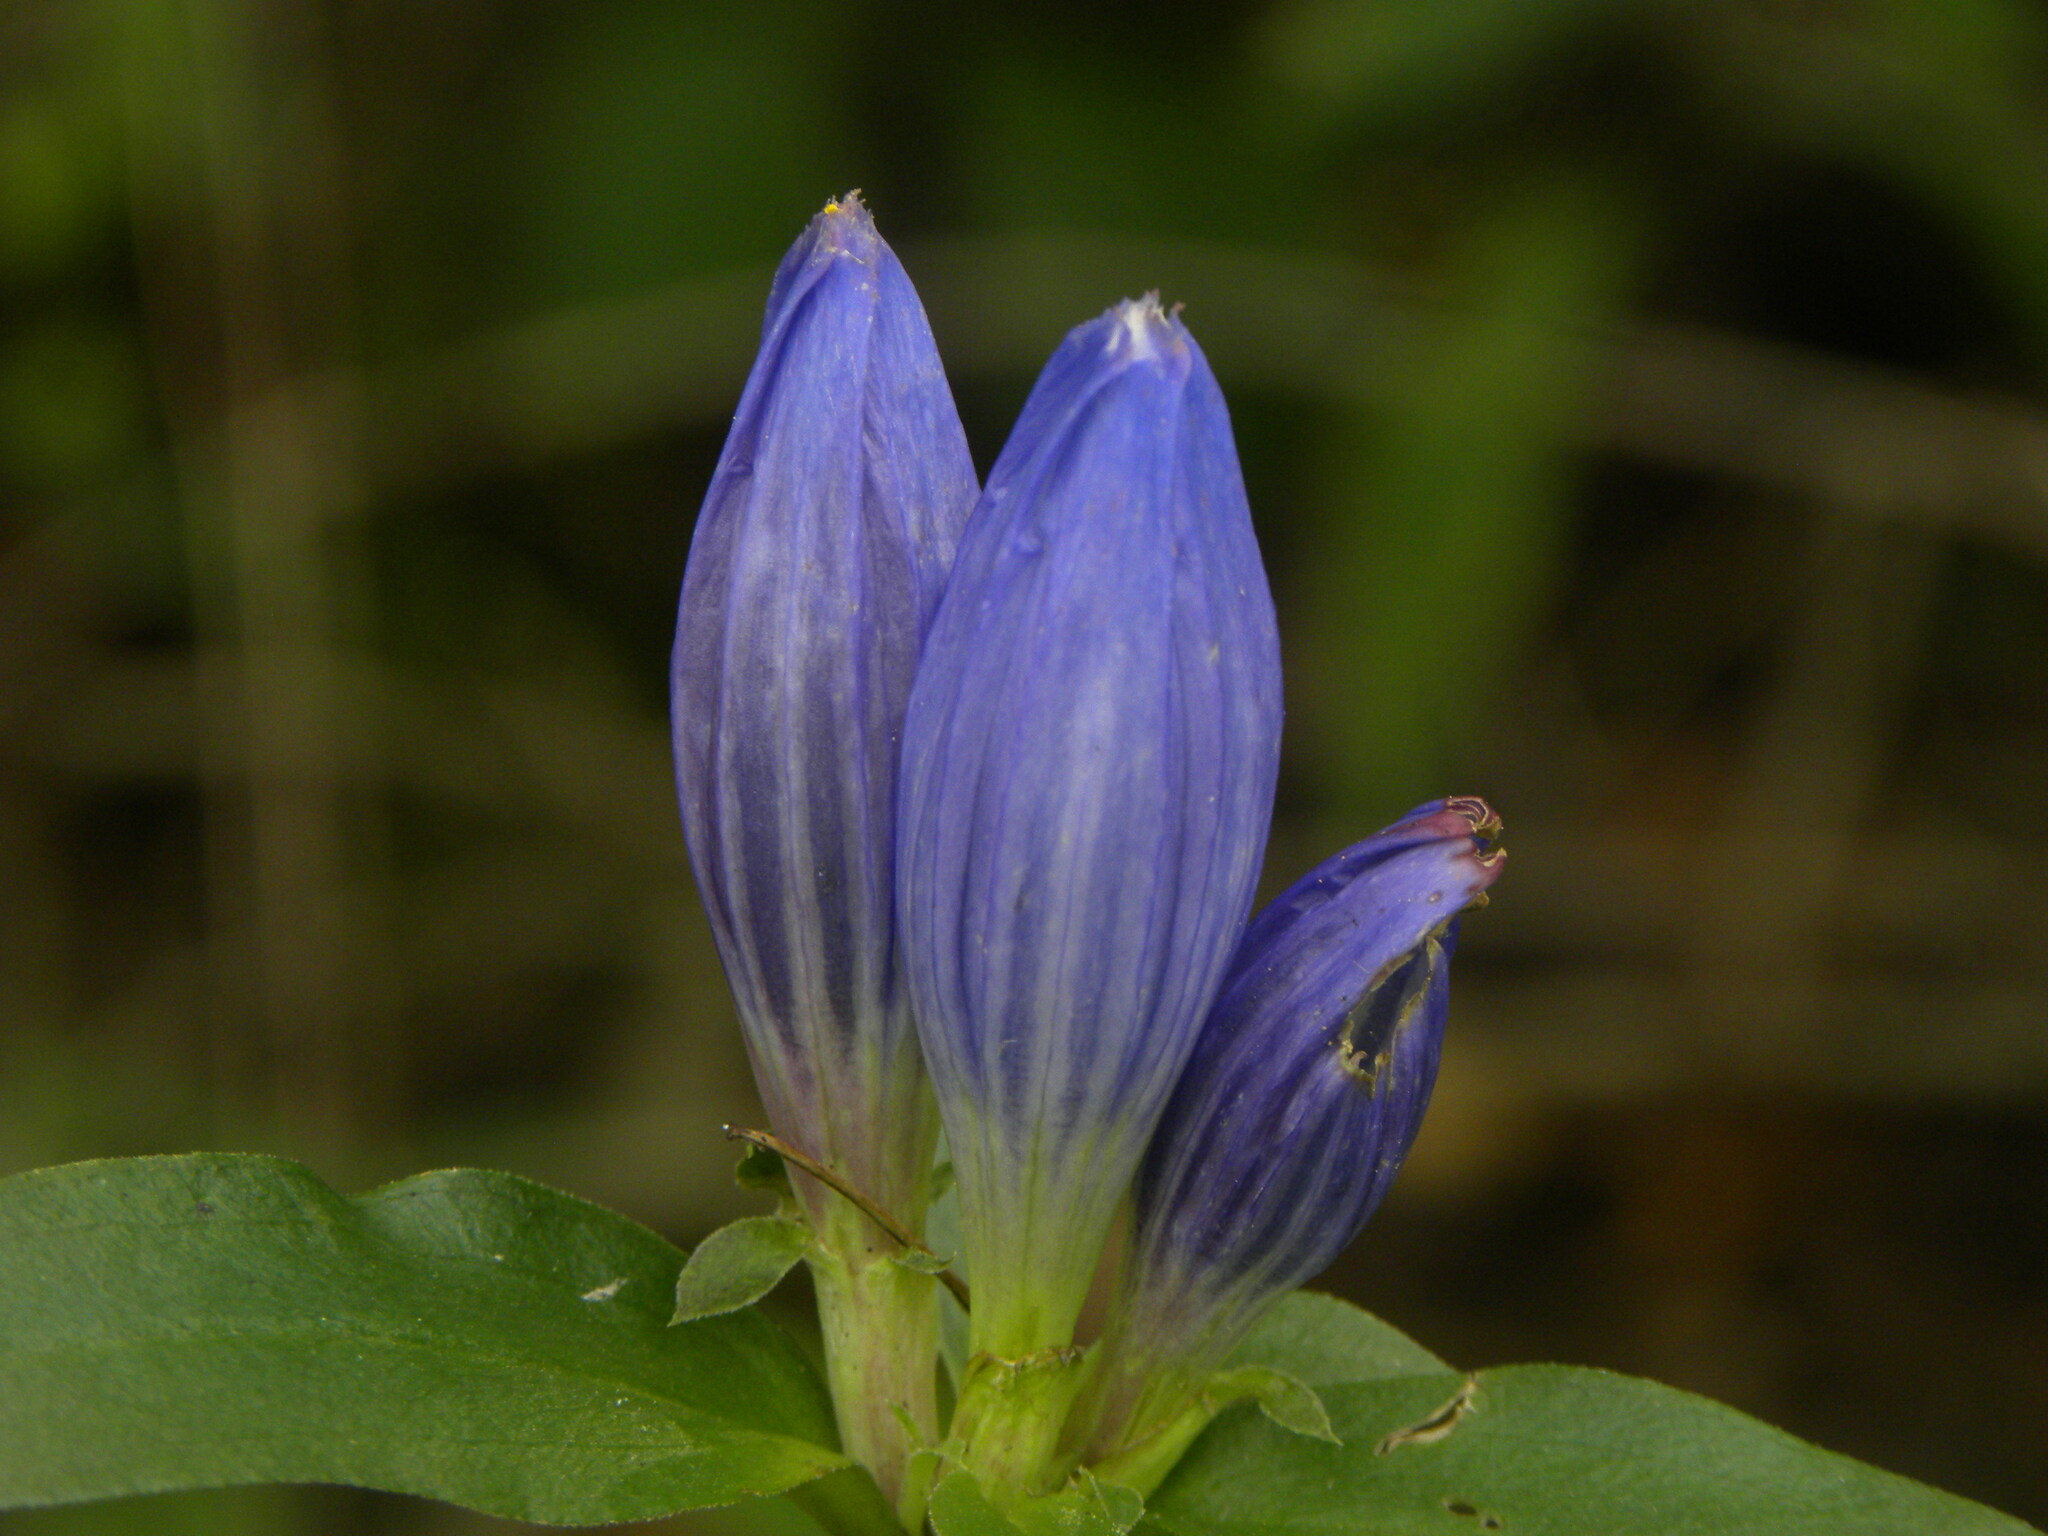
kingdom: Plantae
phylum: Tracheophyta
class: Magnoliopsida
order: Gentianales
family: Gentianaceae
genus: Gentiana
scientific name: Gentiana andrewsii
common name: Bottle gentian
